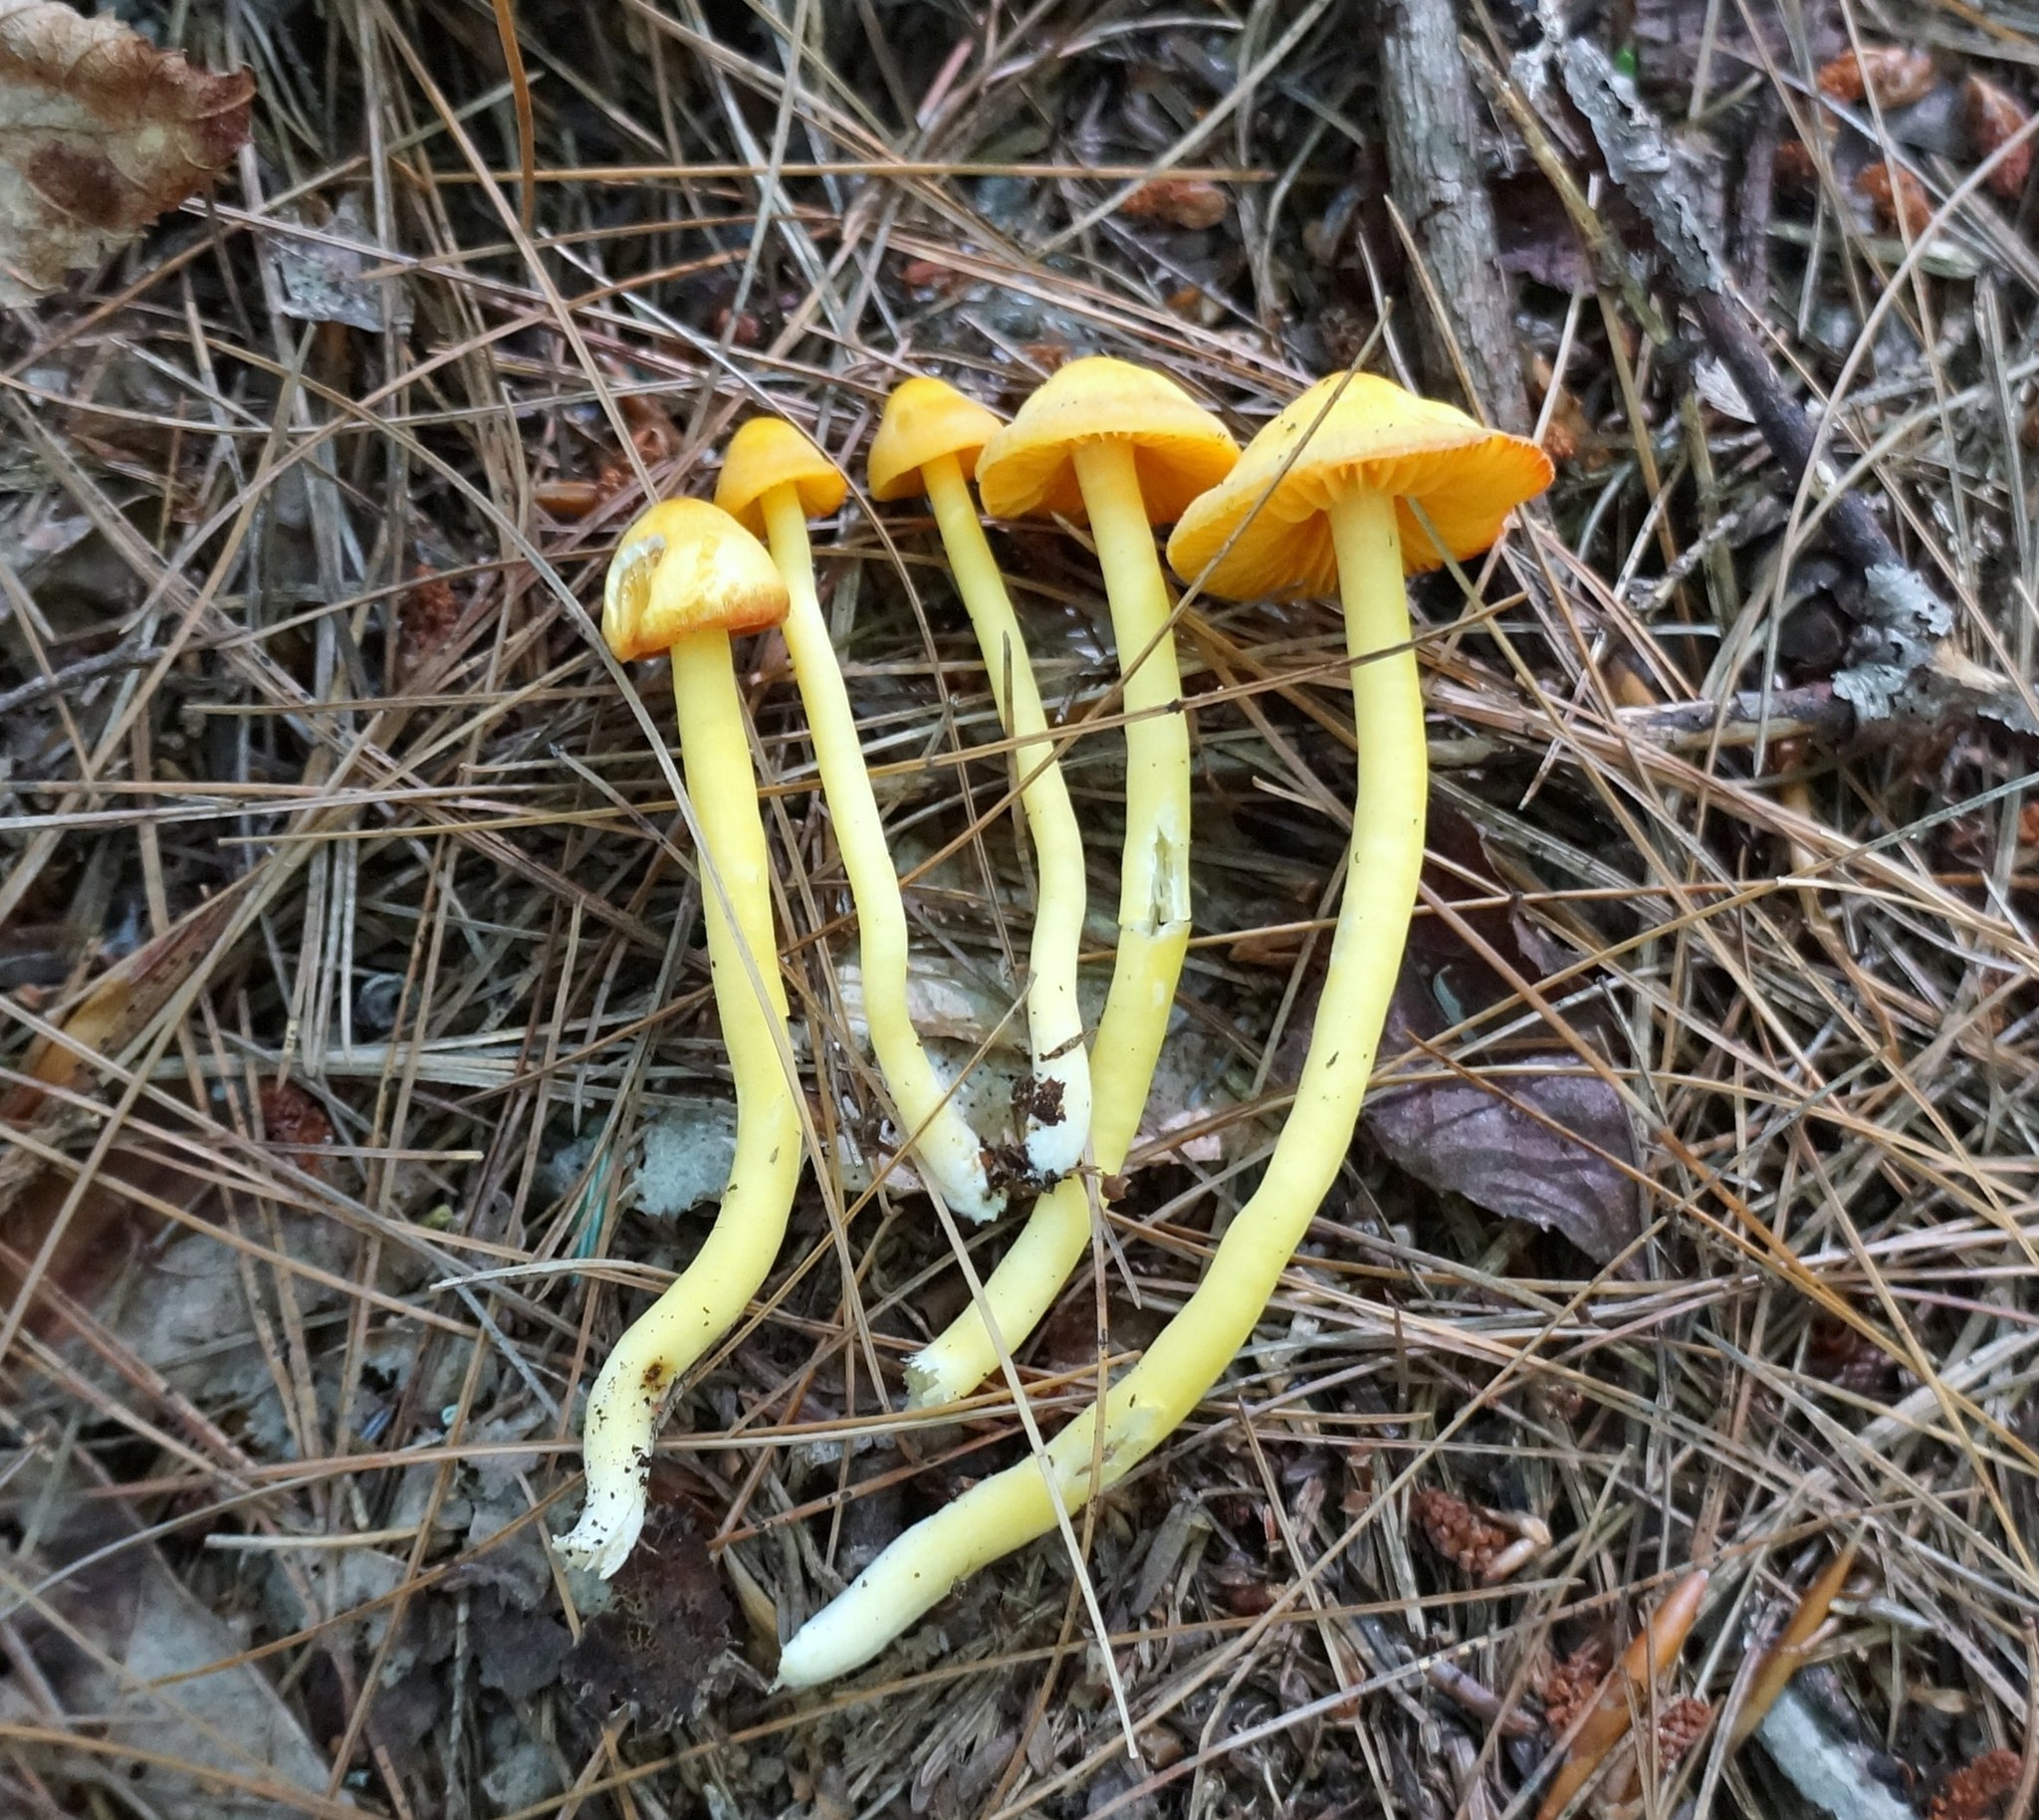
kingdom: Fungi
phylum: Basidiomycota
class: Agaricomycetes
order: Agaricales
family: Hygrophoraceae
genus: Humidicutis
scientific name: Humidicutis marginata
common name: Orange gilled waxcap
